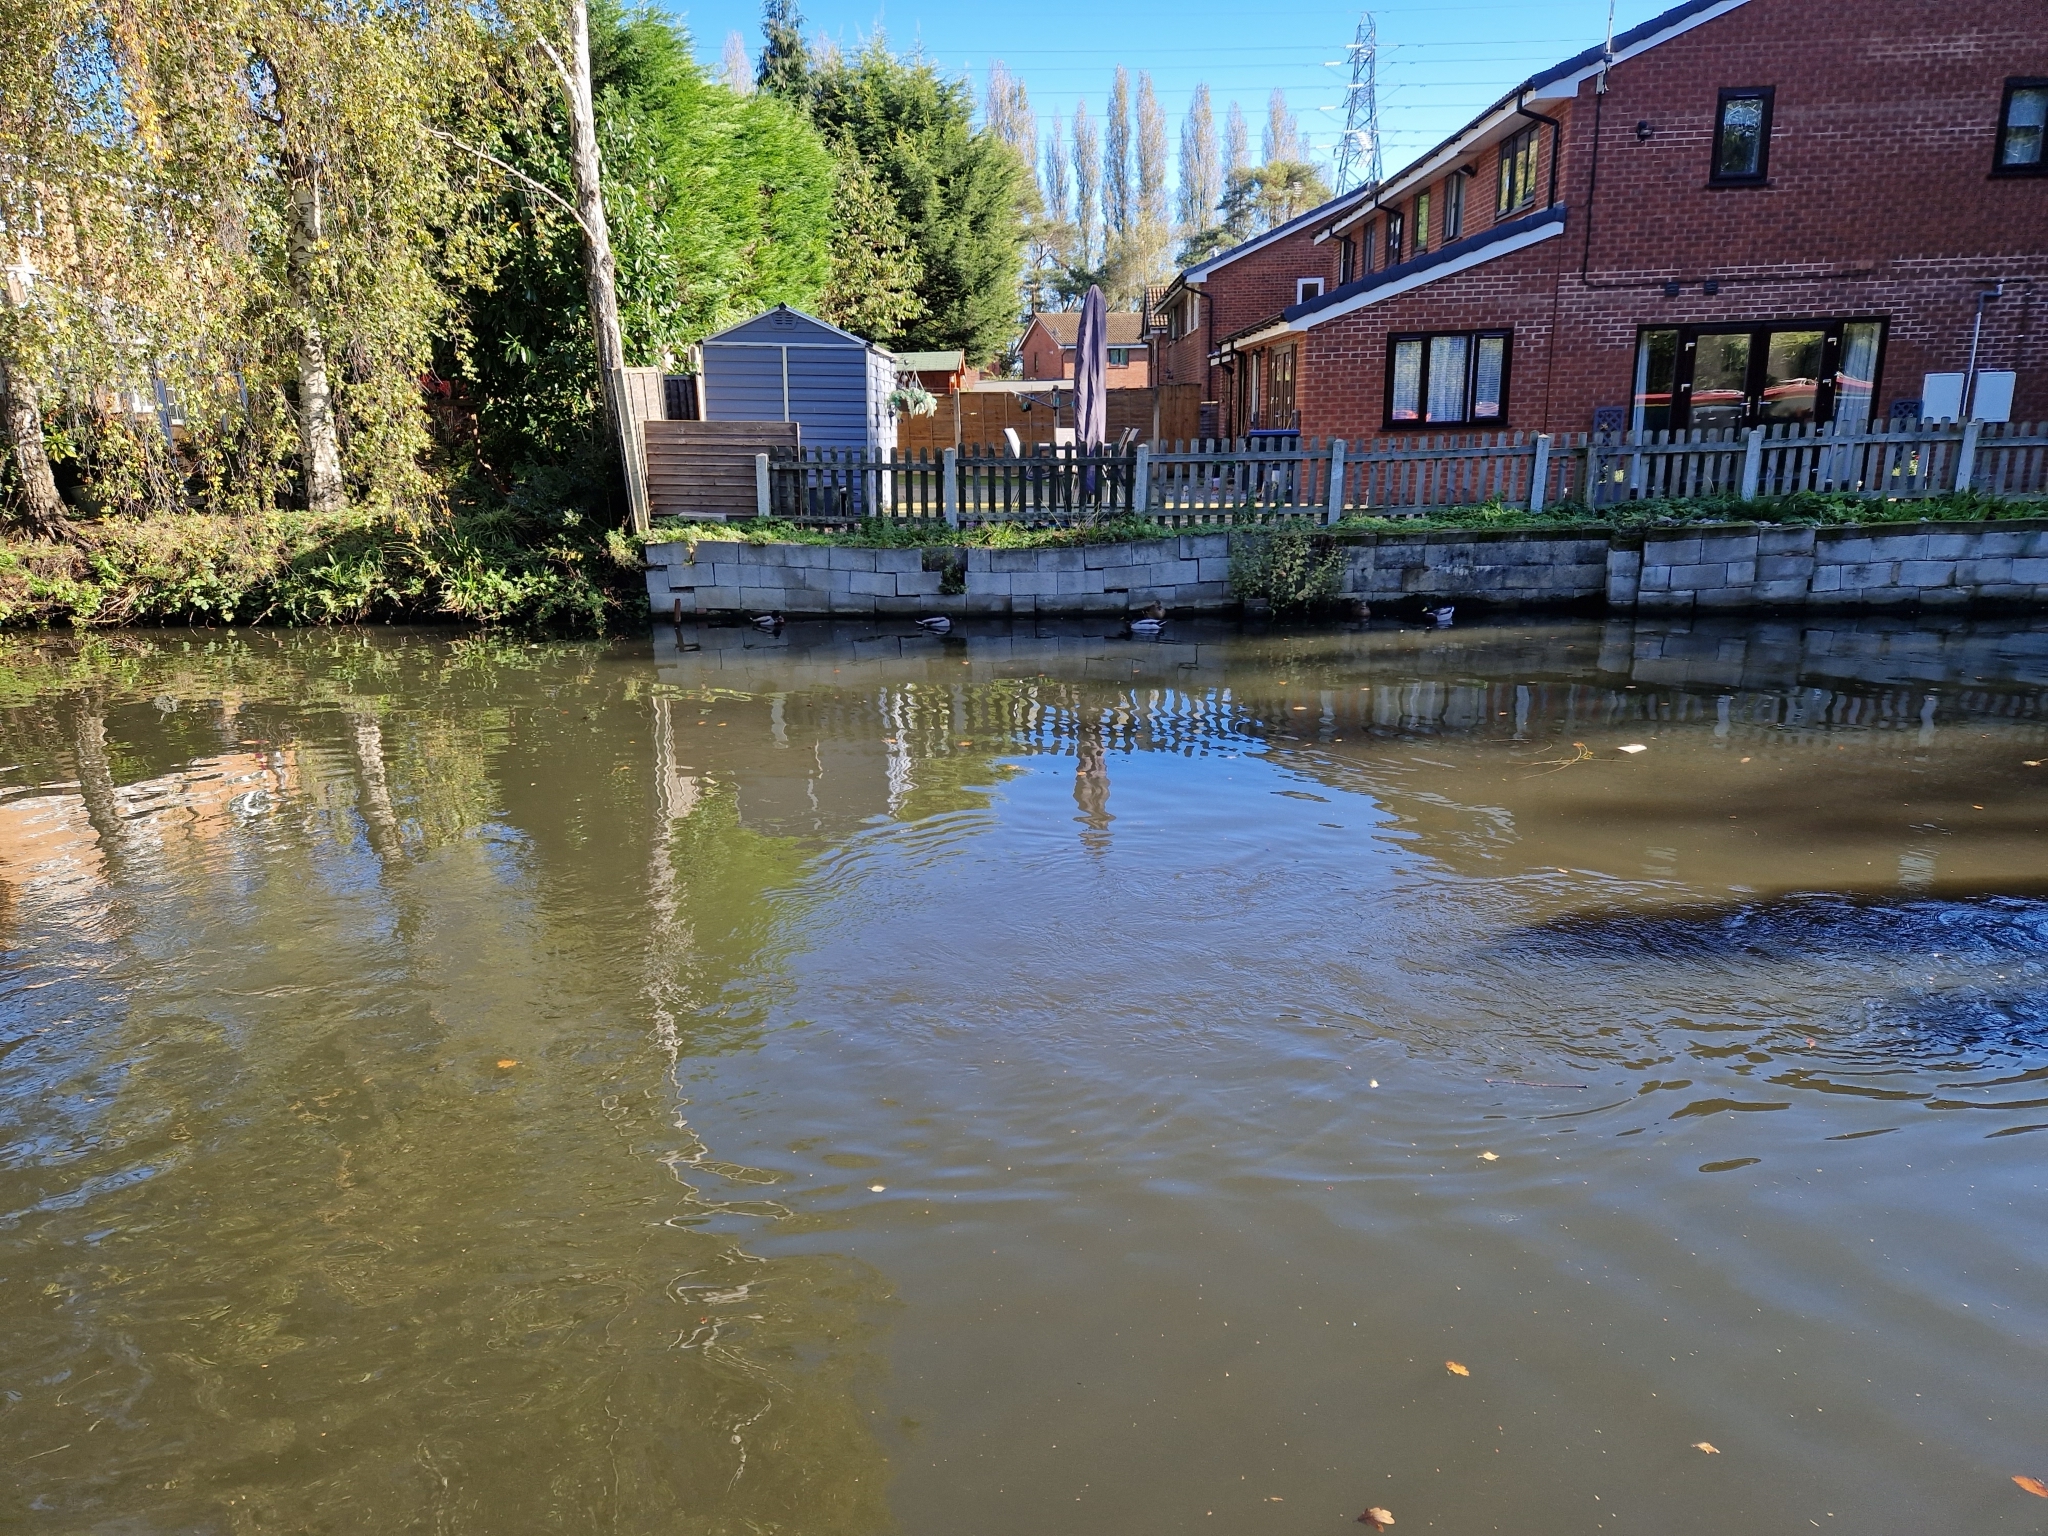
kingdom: Animalia
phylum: Chordata
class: Aves
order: Anseriformes
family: Anatidae
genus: Anas
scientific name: Anas platyrhynchos
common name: Mallard
